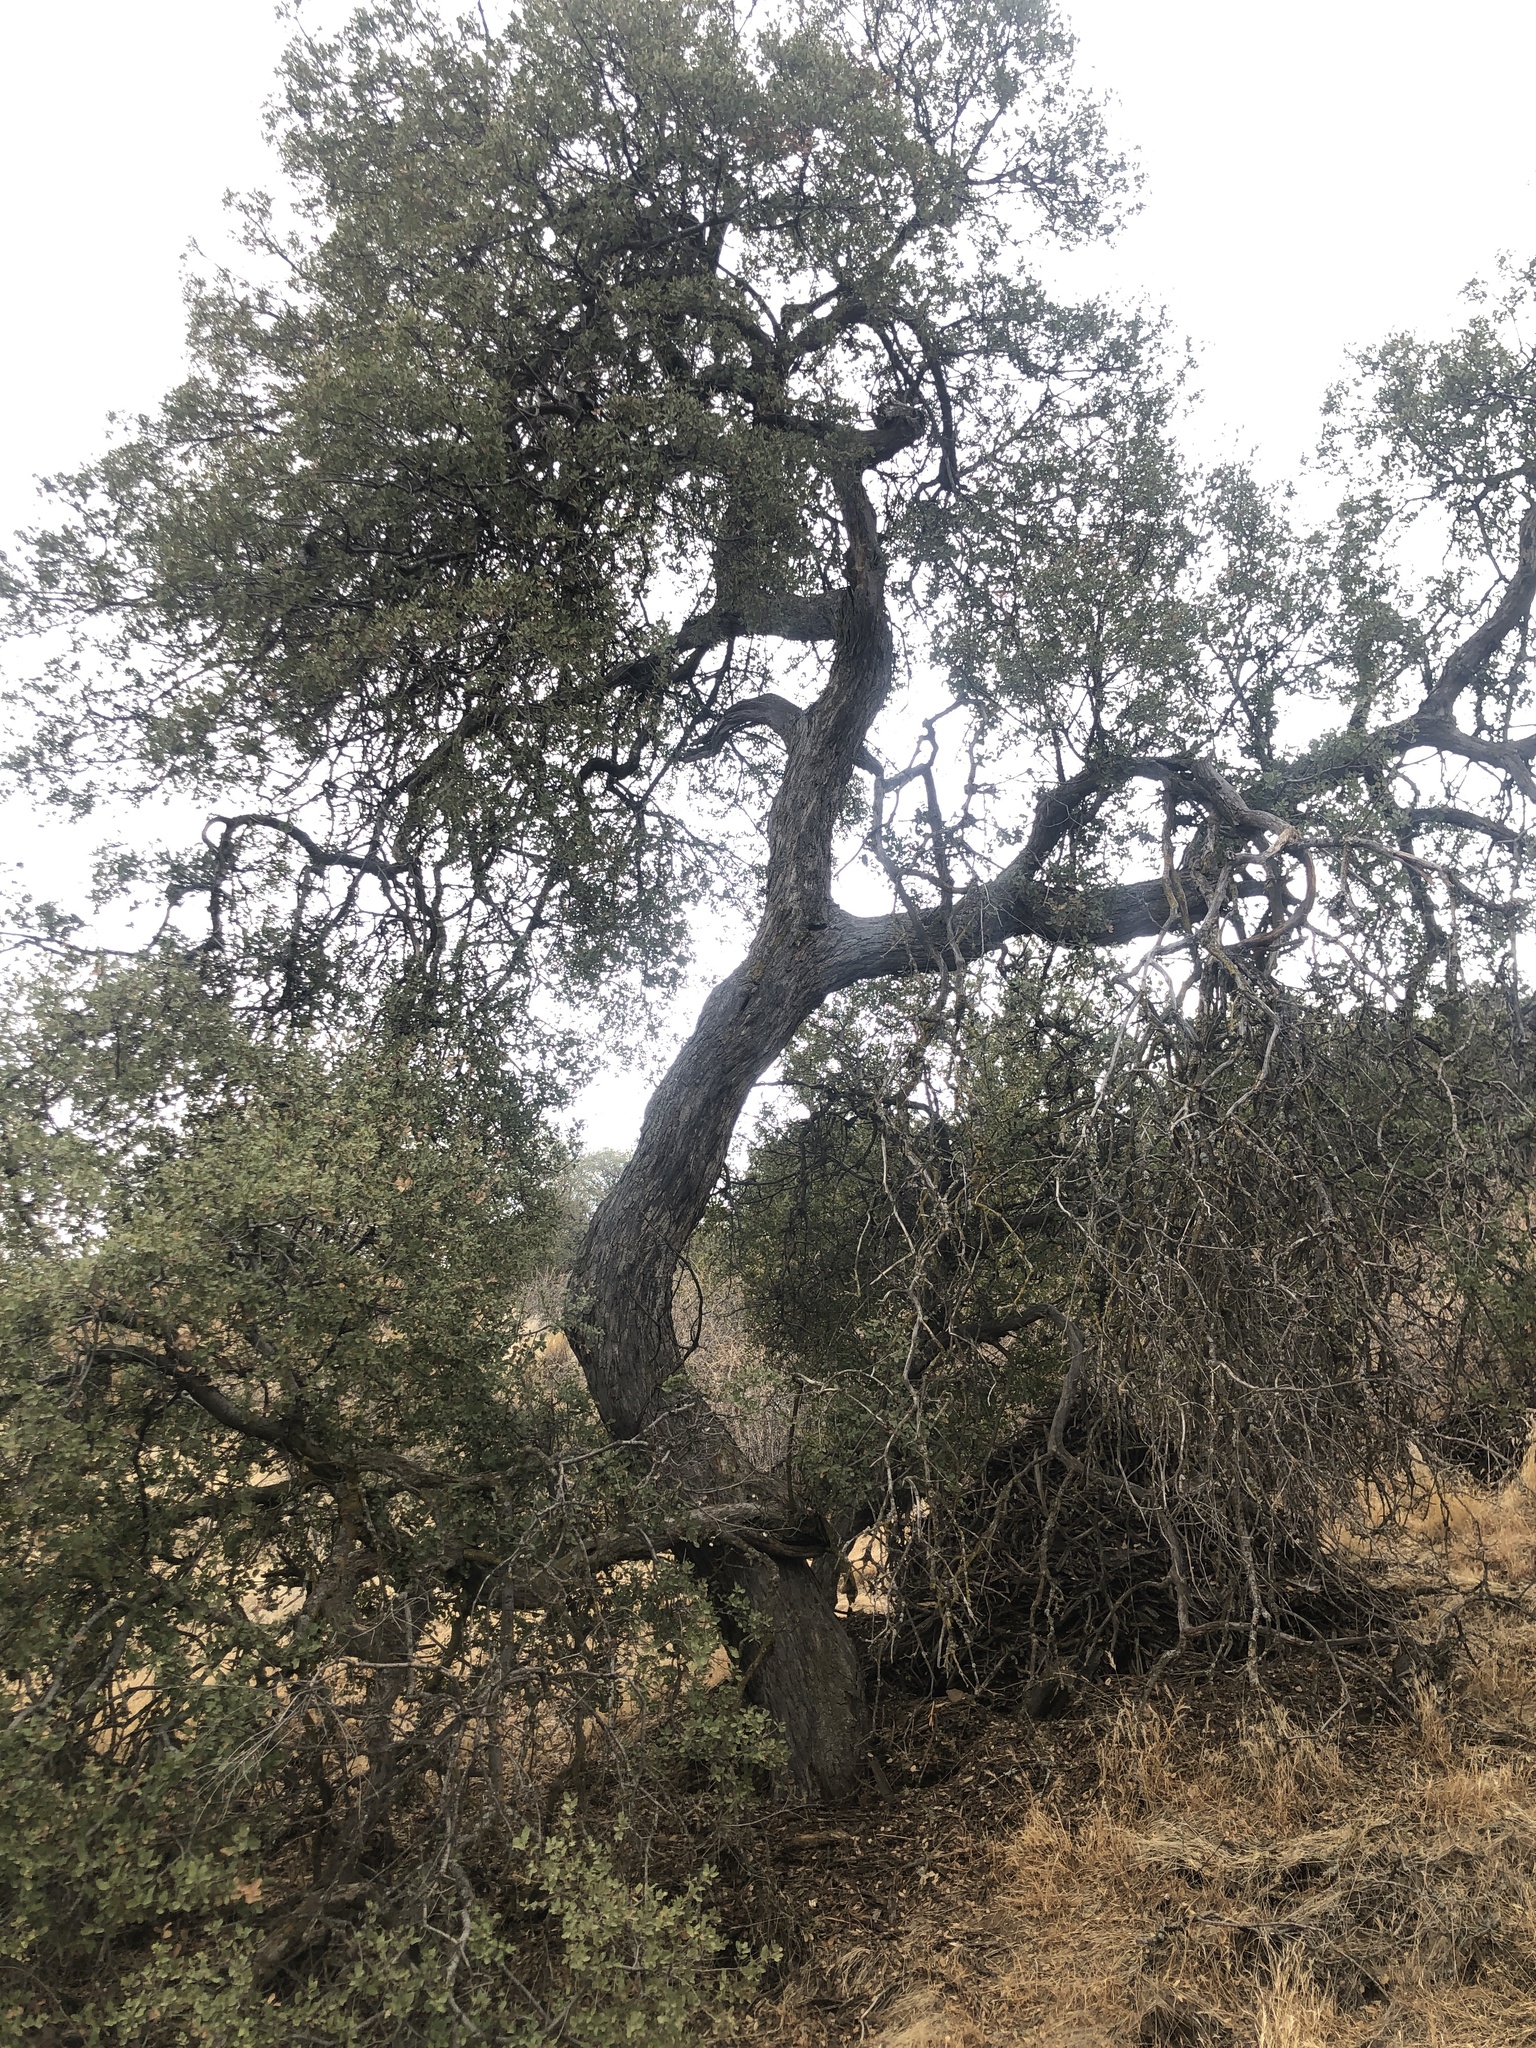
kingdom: Plantae
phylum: Tracheophyta
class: Magnoliopsida
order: Fagales
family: Fagaceae
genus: Quercus
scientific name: Quercus alvordiana
